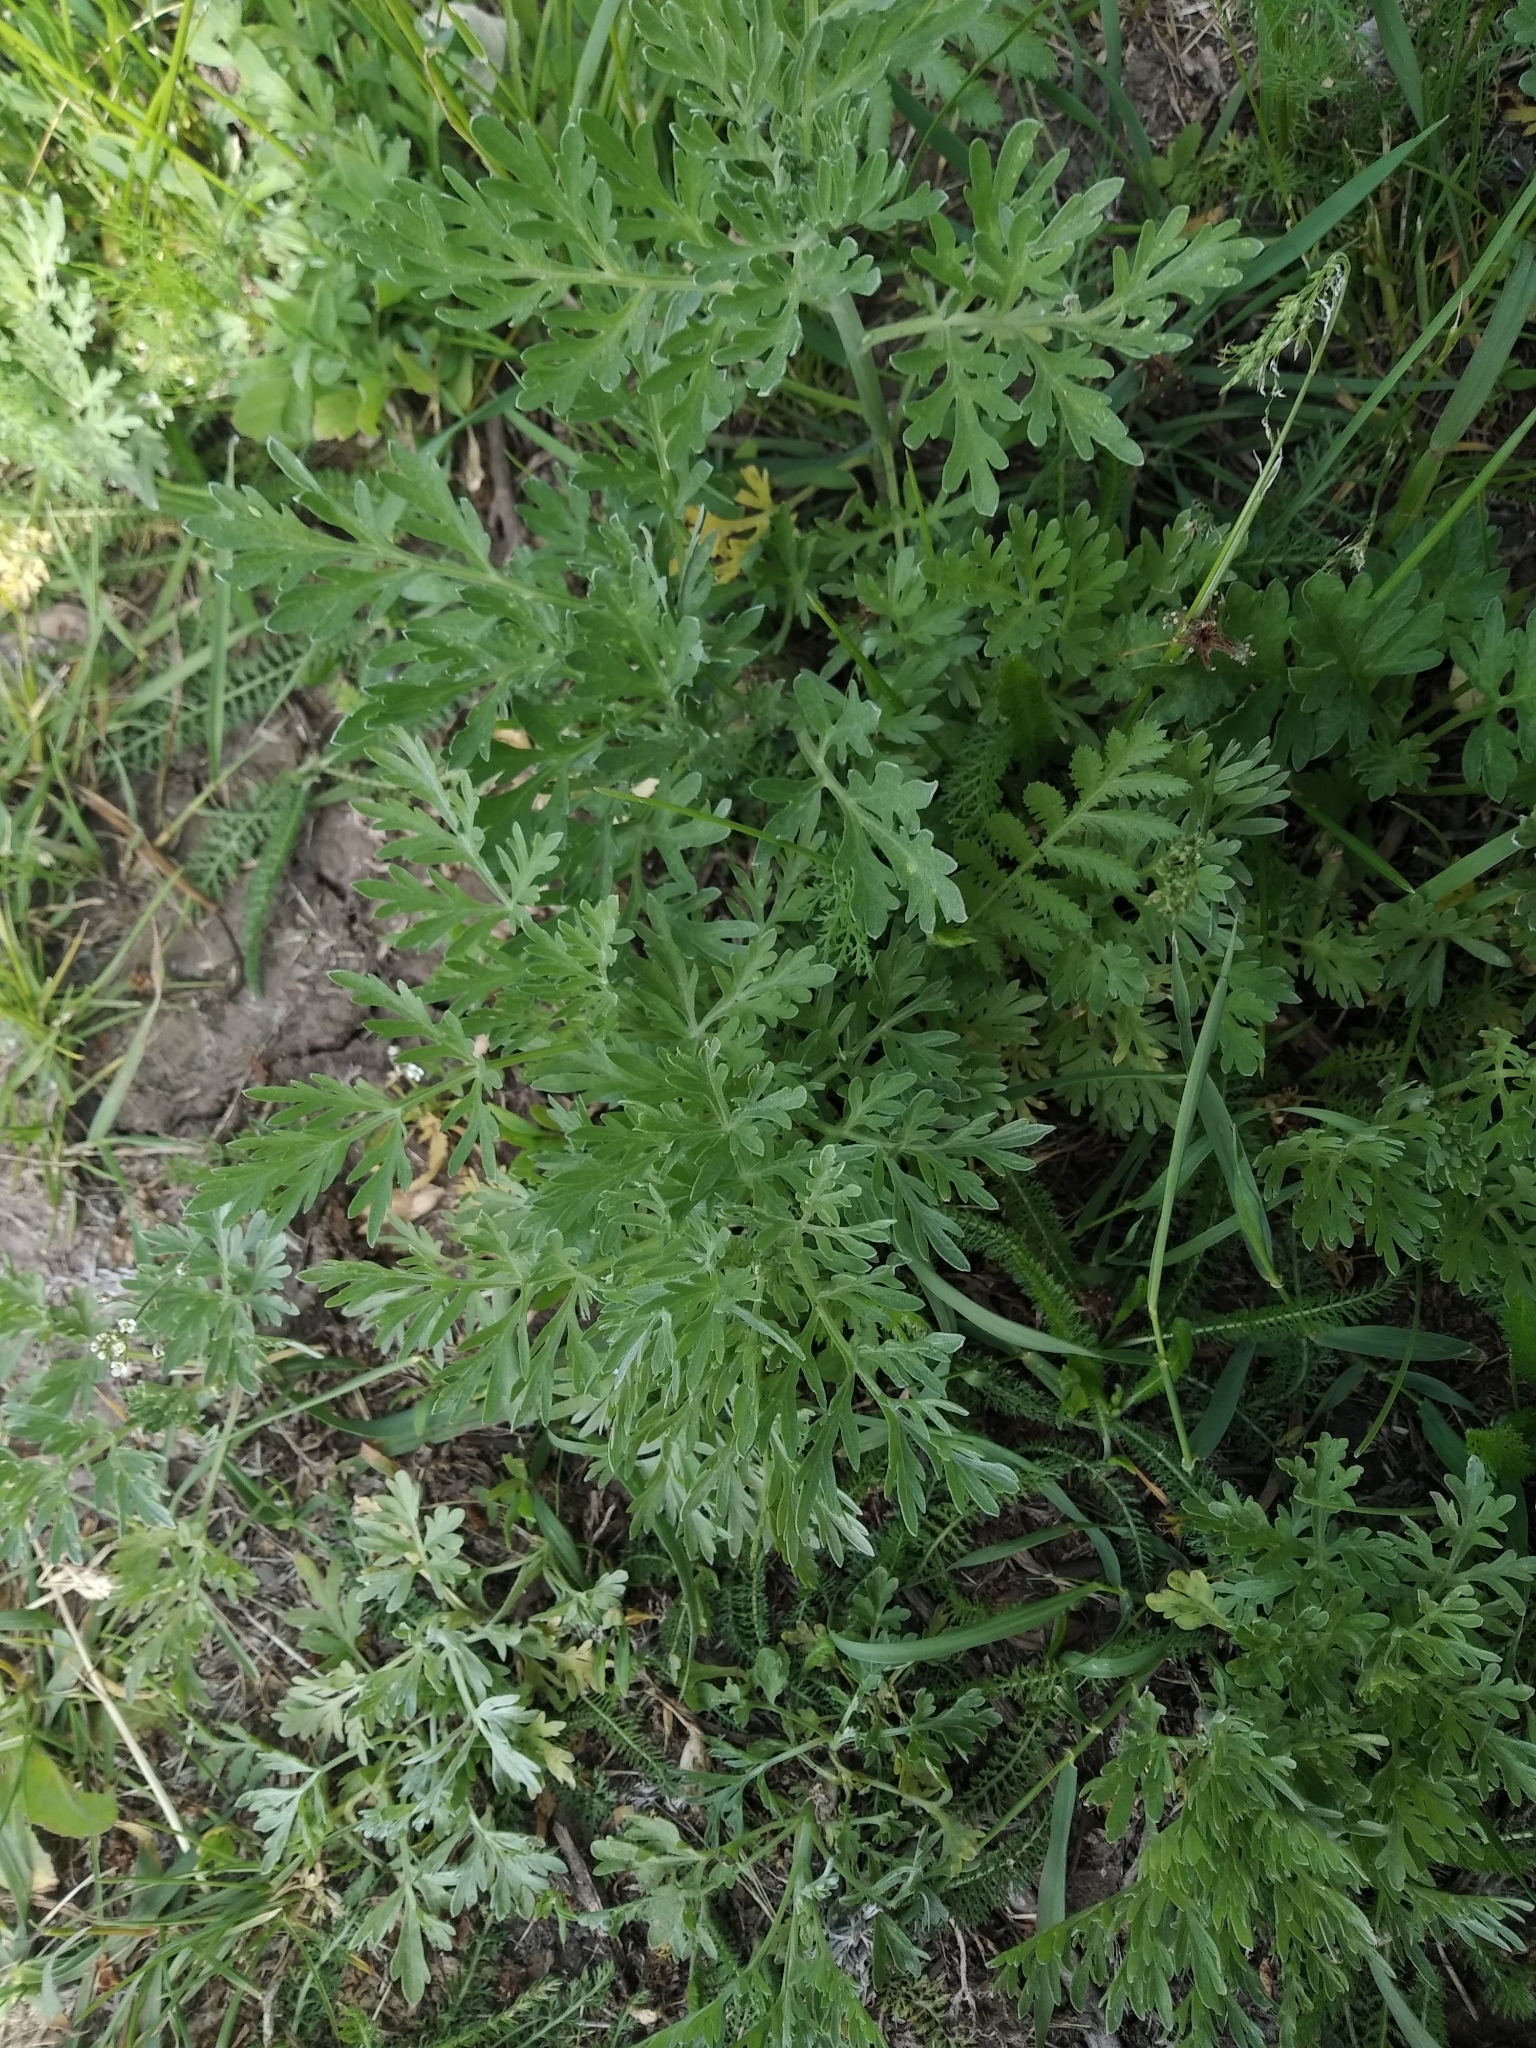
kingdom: Plantae
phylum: Tracheophyta
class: Magnoliopsida
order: Asterales
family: Asteraceae
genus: Artemisia
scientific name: Artemisia absinthium
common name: Wormwood
